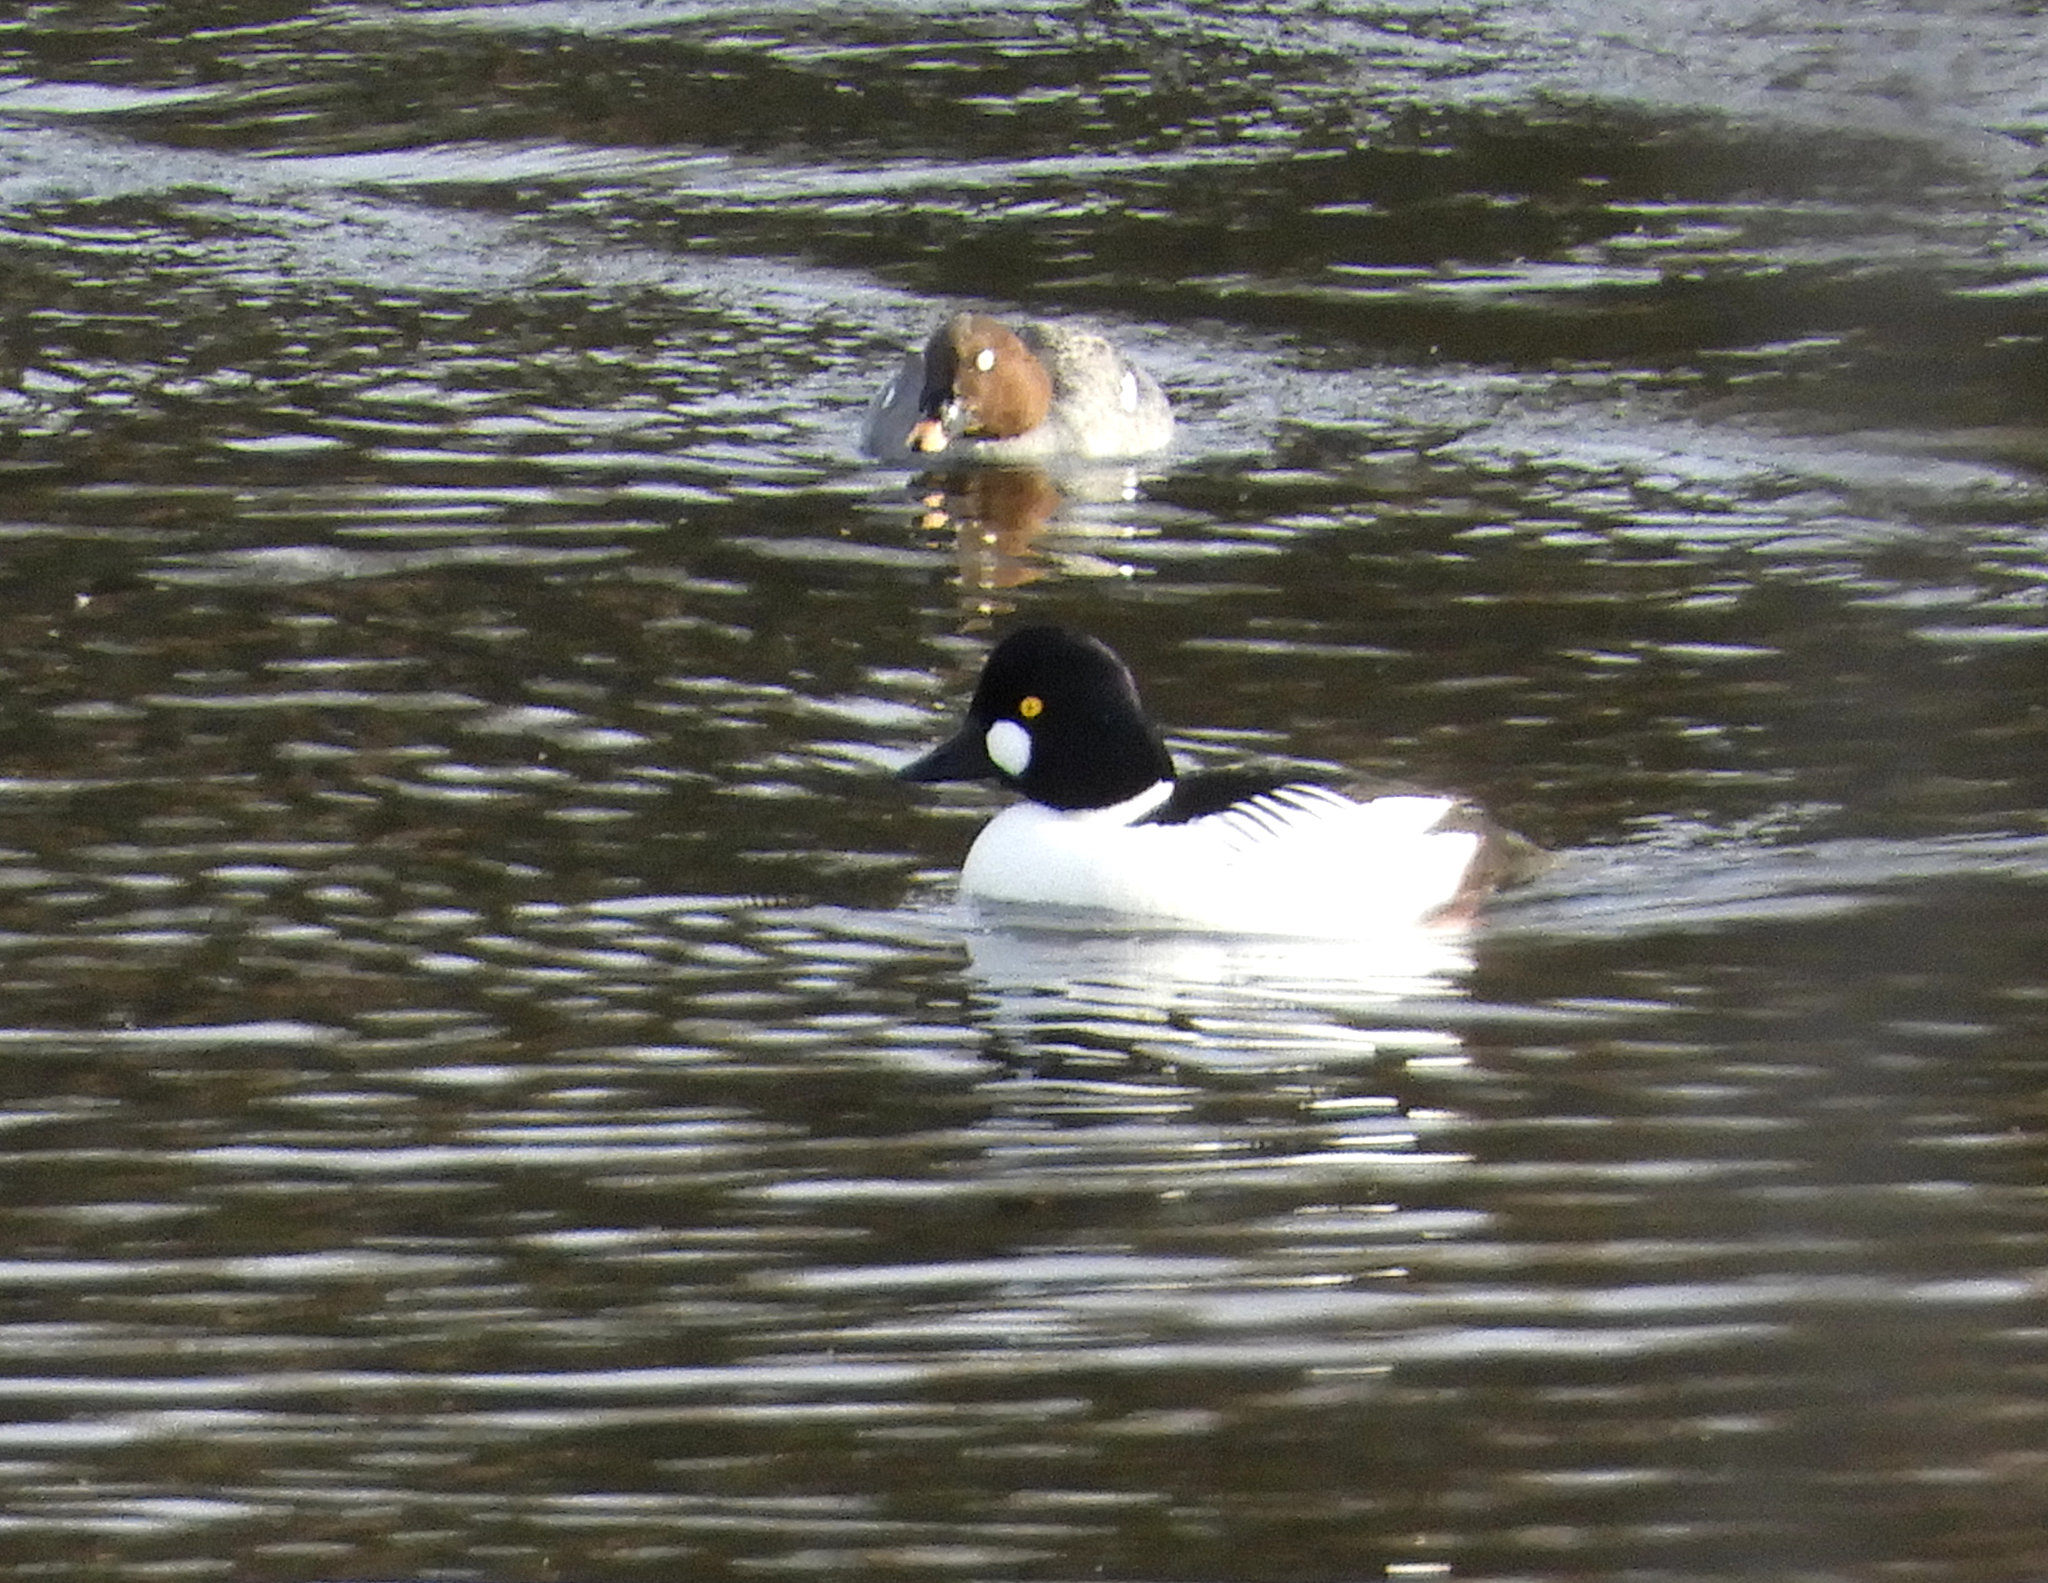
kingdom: Animalia
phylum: Chordata
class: Aves
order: Anseriformes
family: Anatidae
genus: Bucephala
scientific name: Bucephala clangula
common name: Common goldeneye
